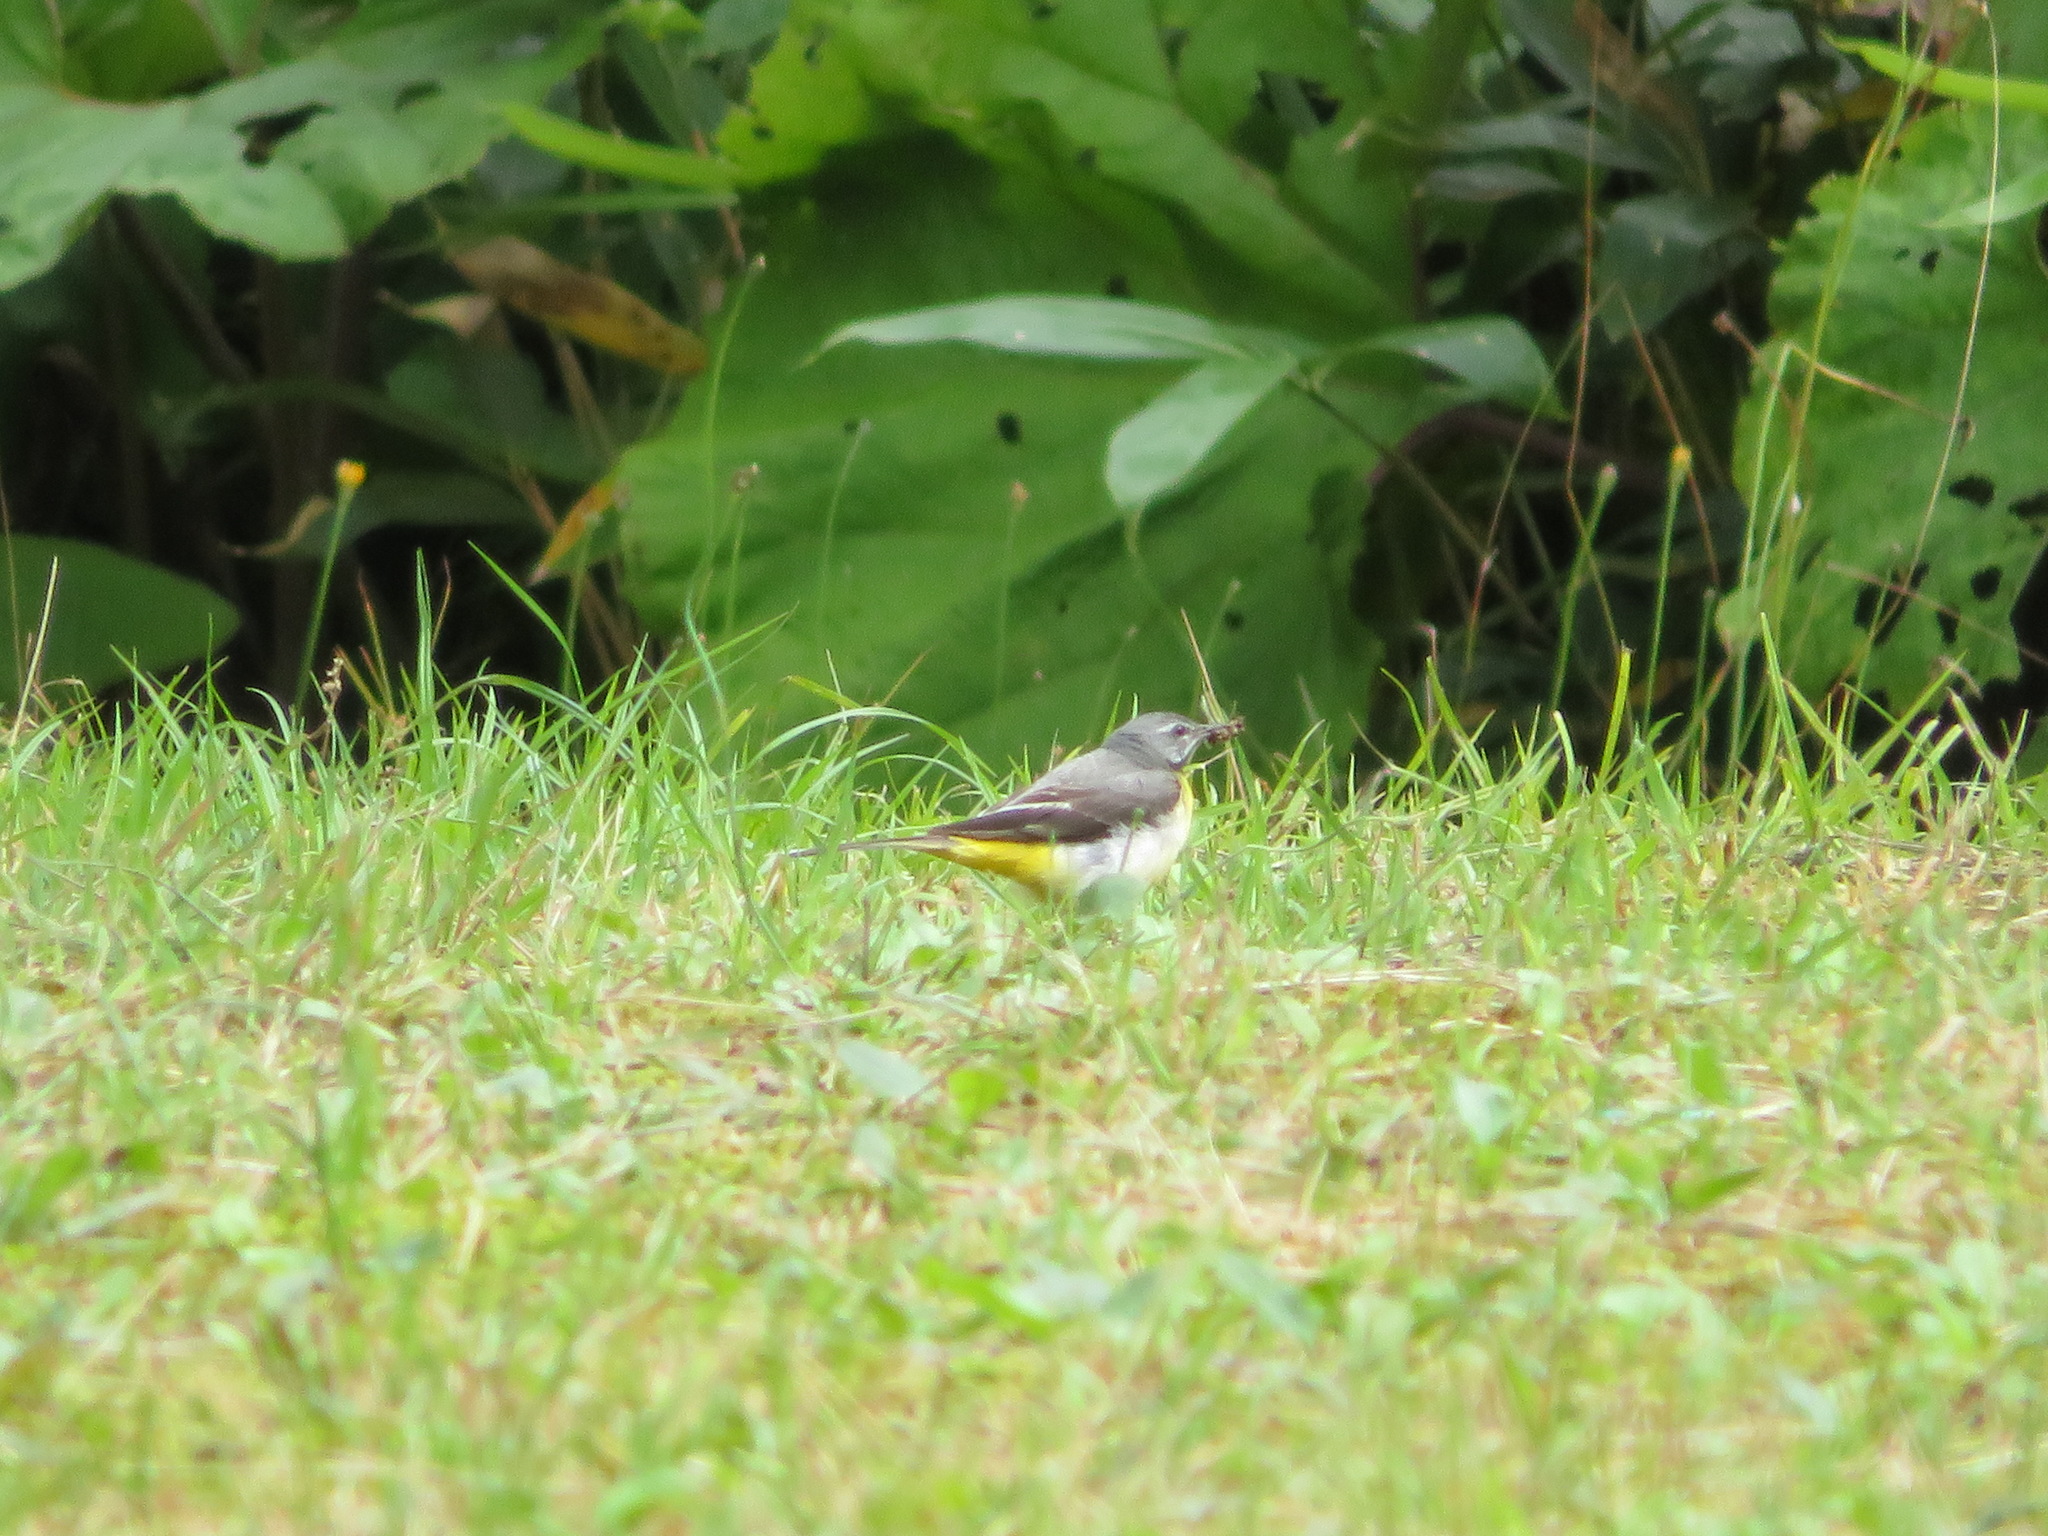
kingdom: Animalia
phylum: Chordata
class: Aves
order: Passeriformes
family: Motacillidae
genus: Motacilla
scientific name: Motacilla cinerea
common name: Grey wagtail
